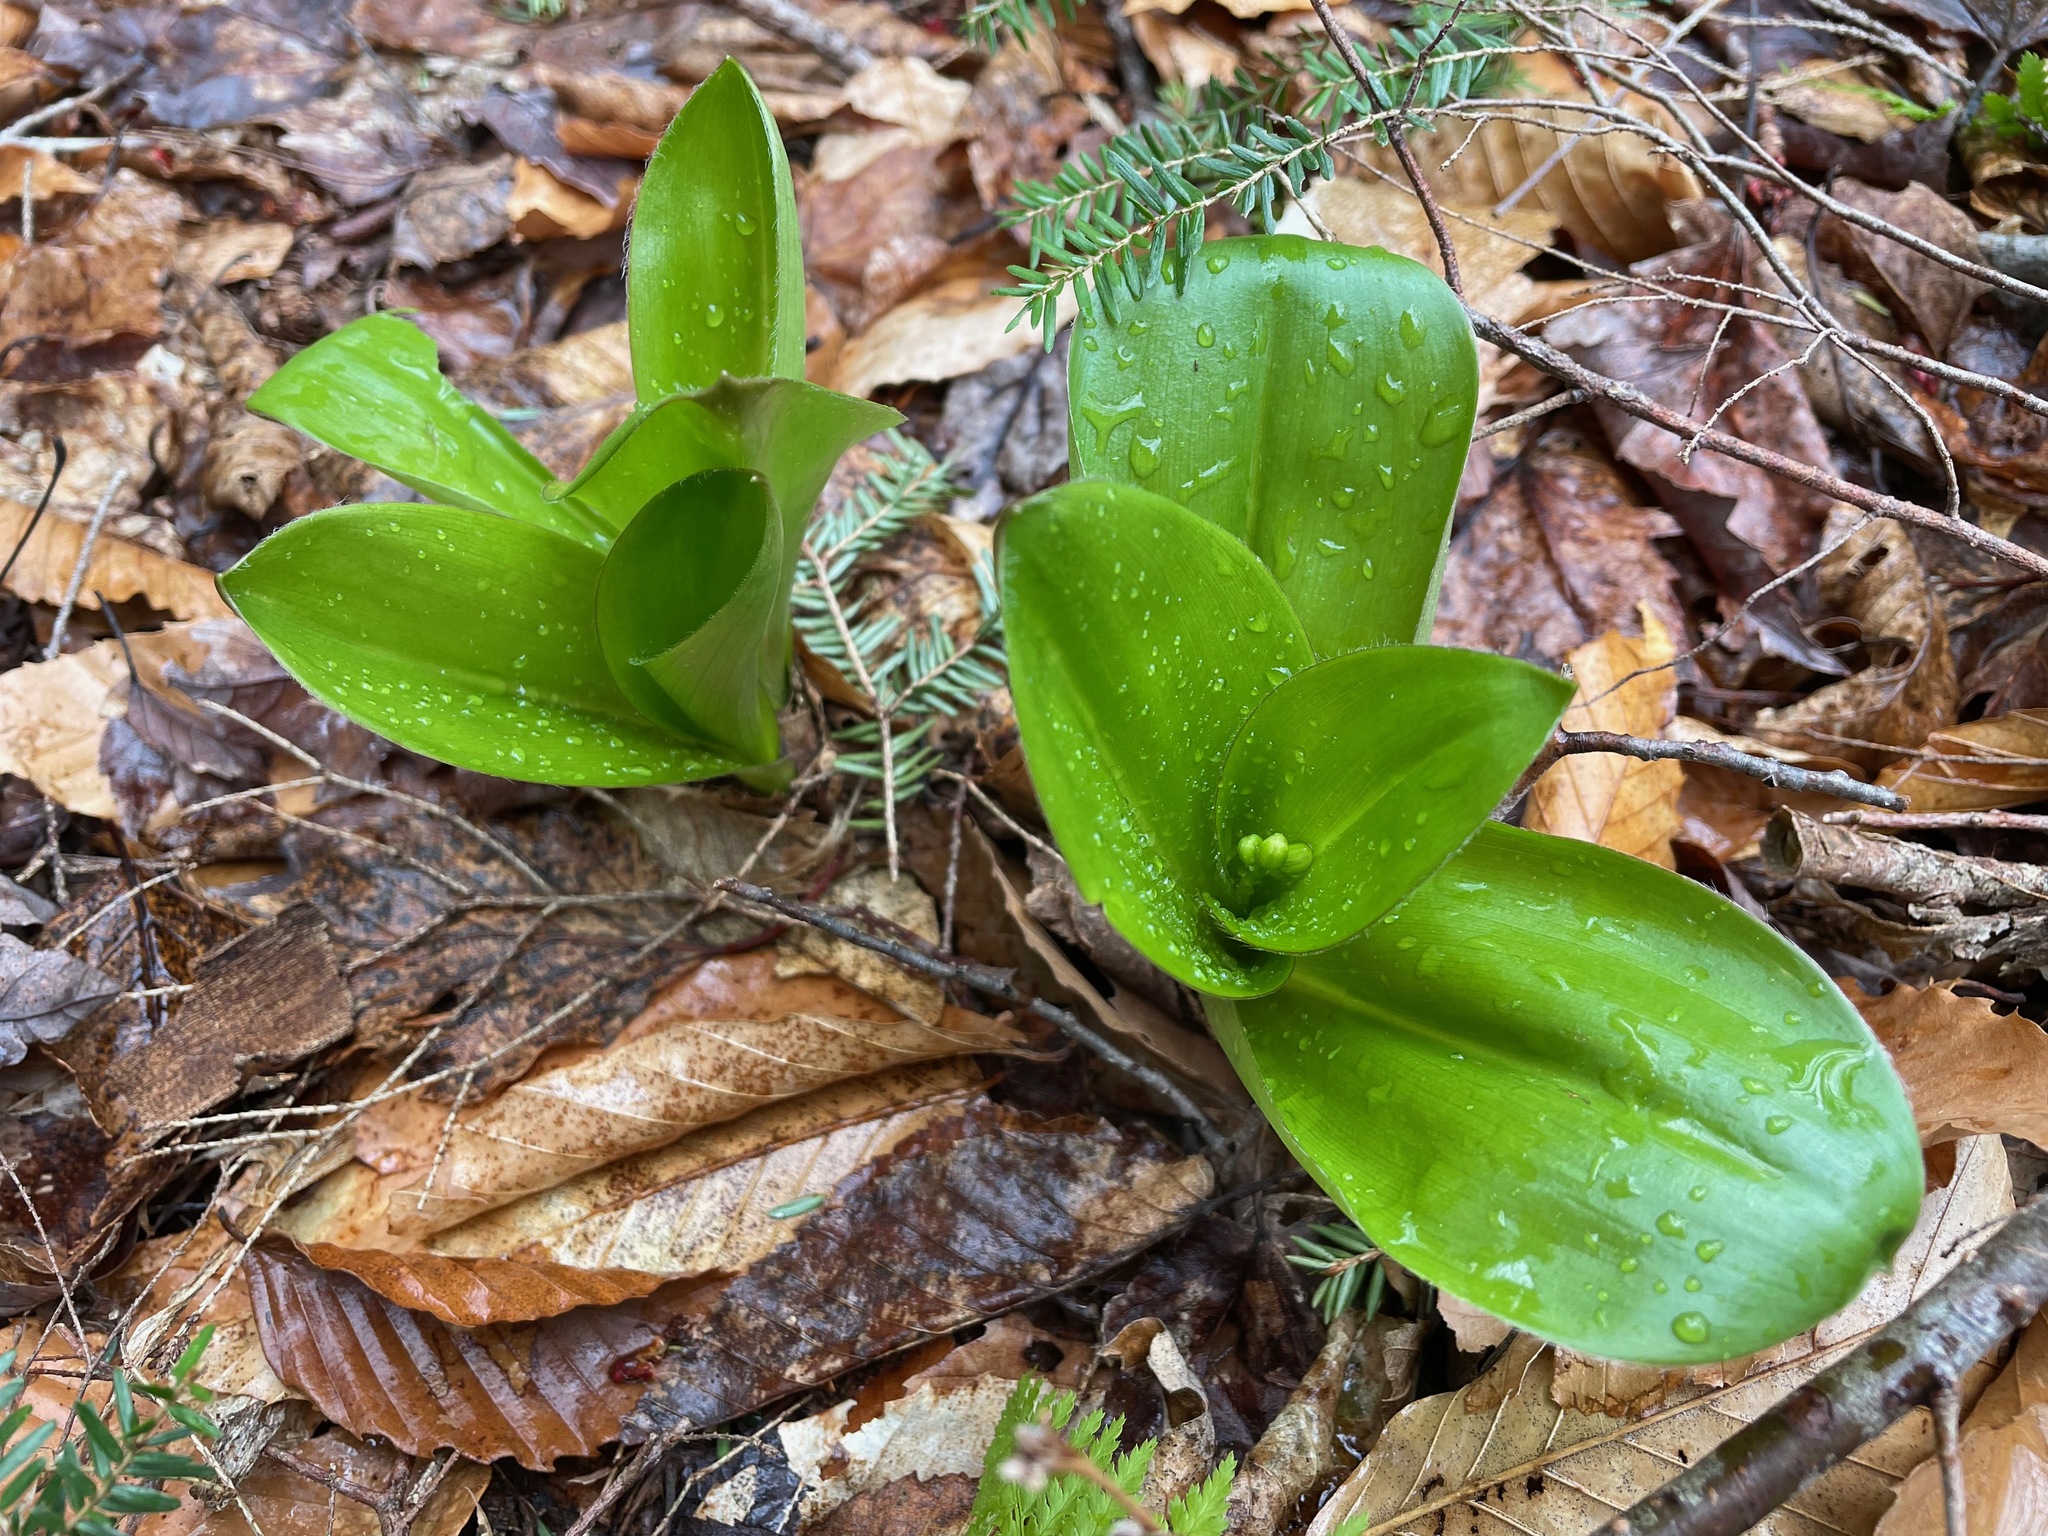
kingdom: Plantae
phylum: Tracheophyta
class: Liliopsida
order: Liliales
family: Liliaceae
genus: Clintonia
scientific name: Clintonia borealis
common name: Yellow clintonia
